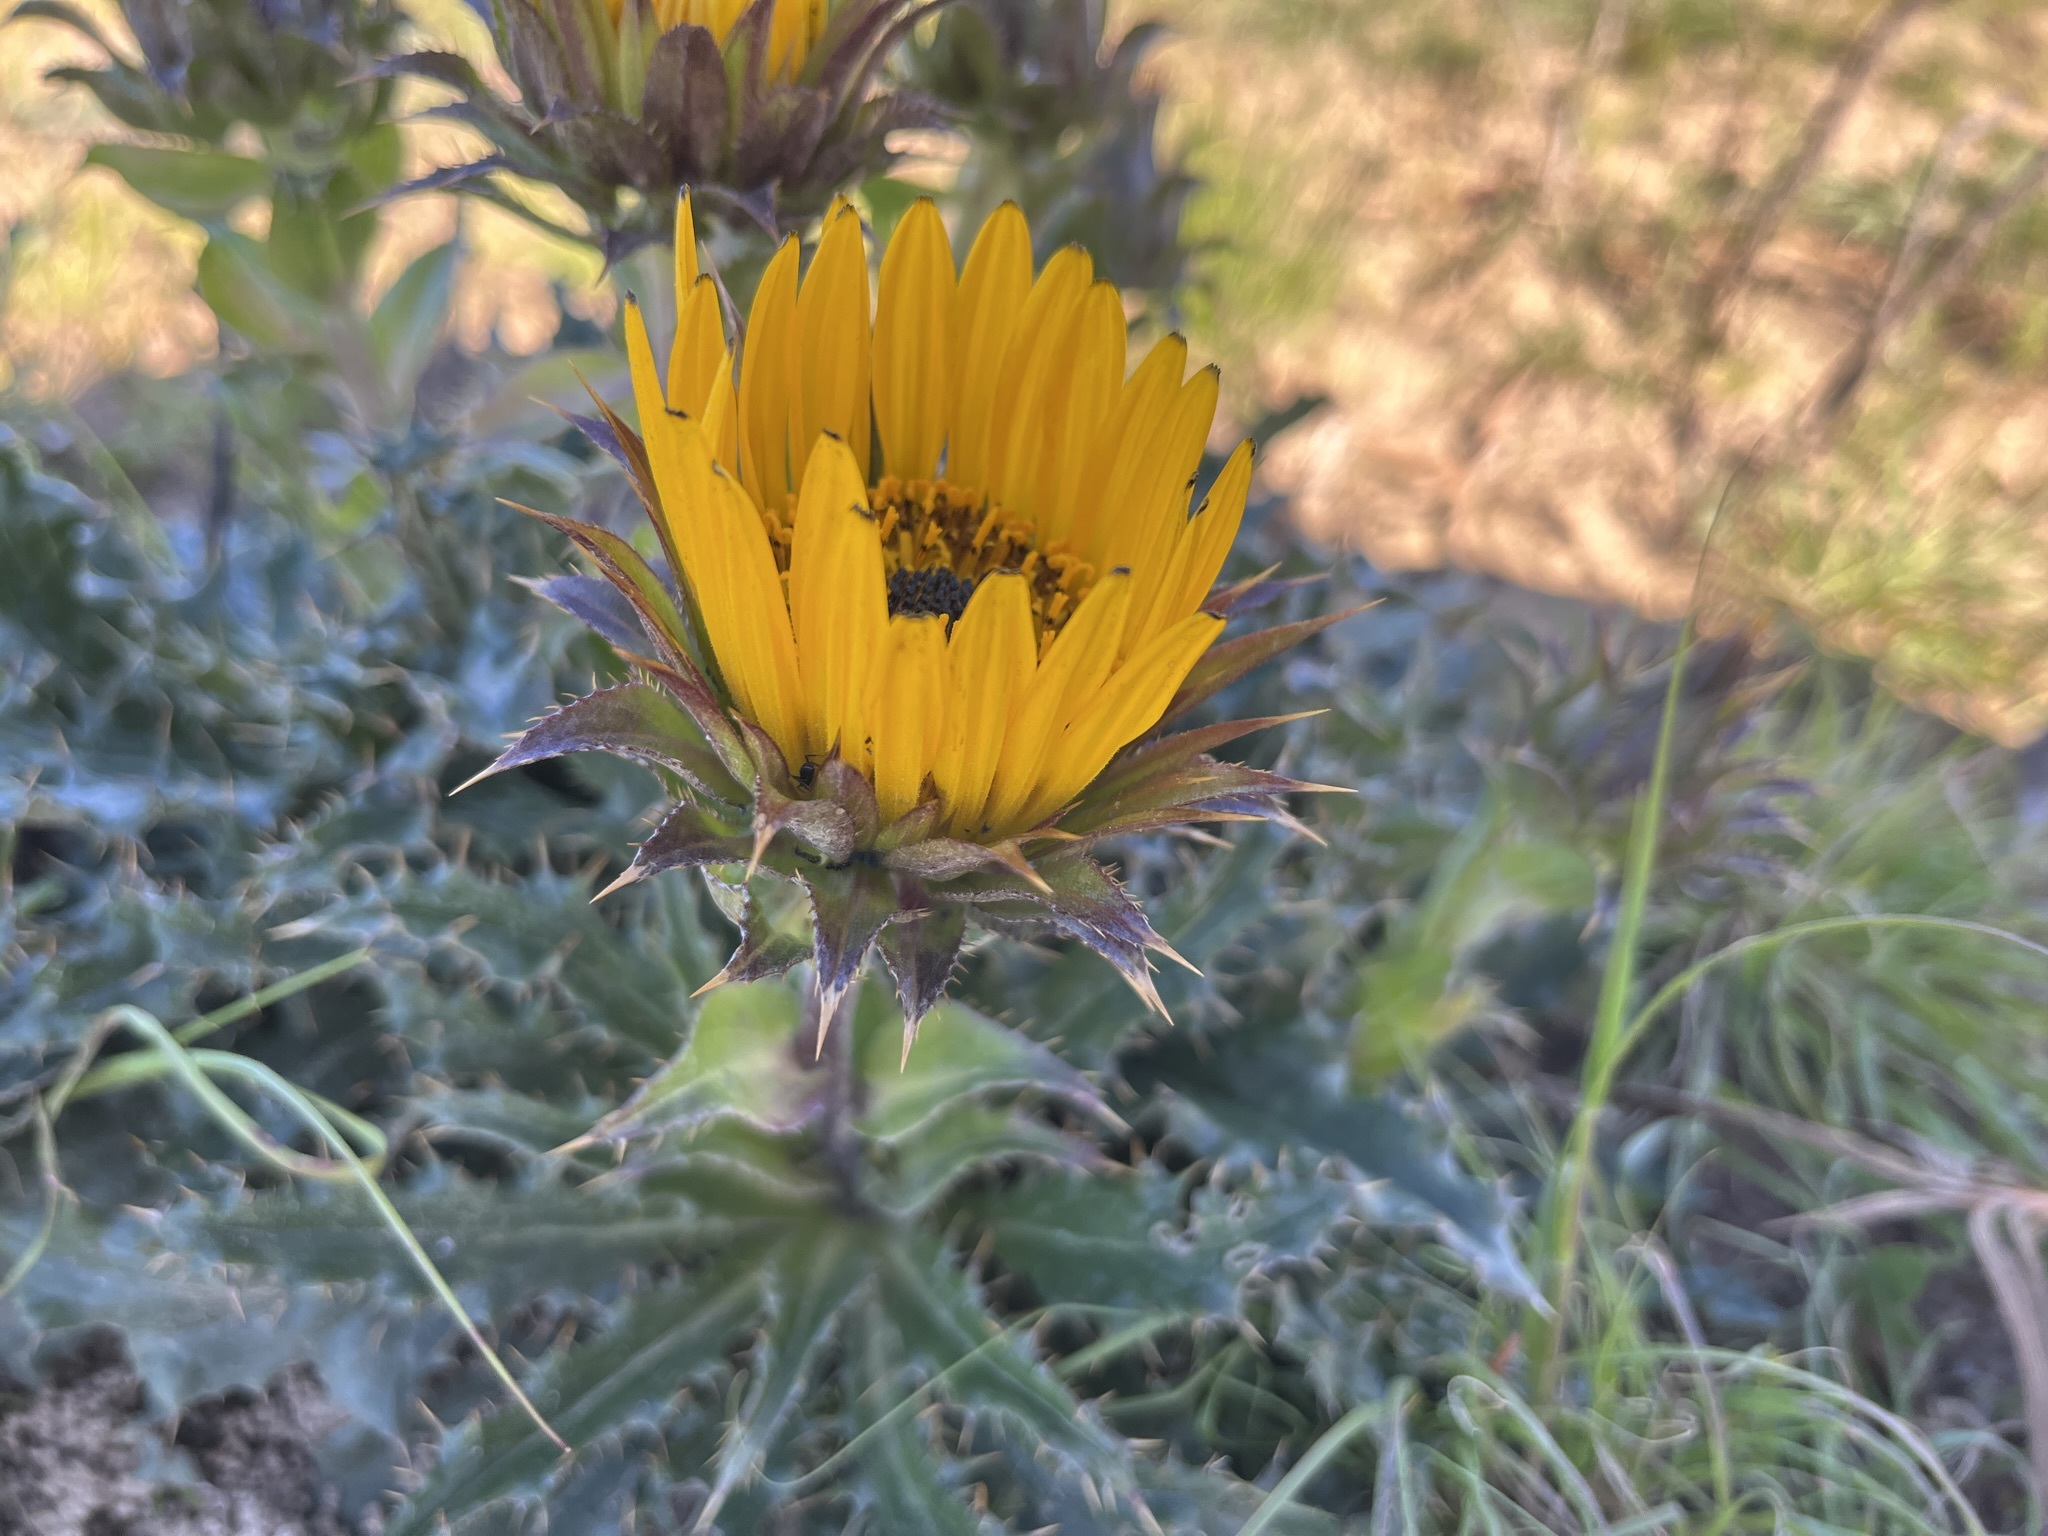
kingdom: Plantae
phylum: Tracheophyta
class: Magnoliopsida
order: Asterales
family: Asteraceae
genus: Berkheya
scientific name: Berkheya armata
